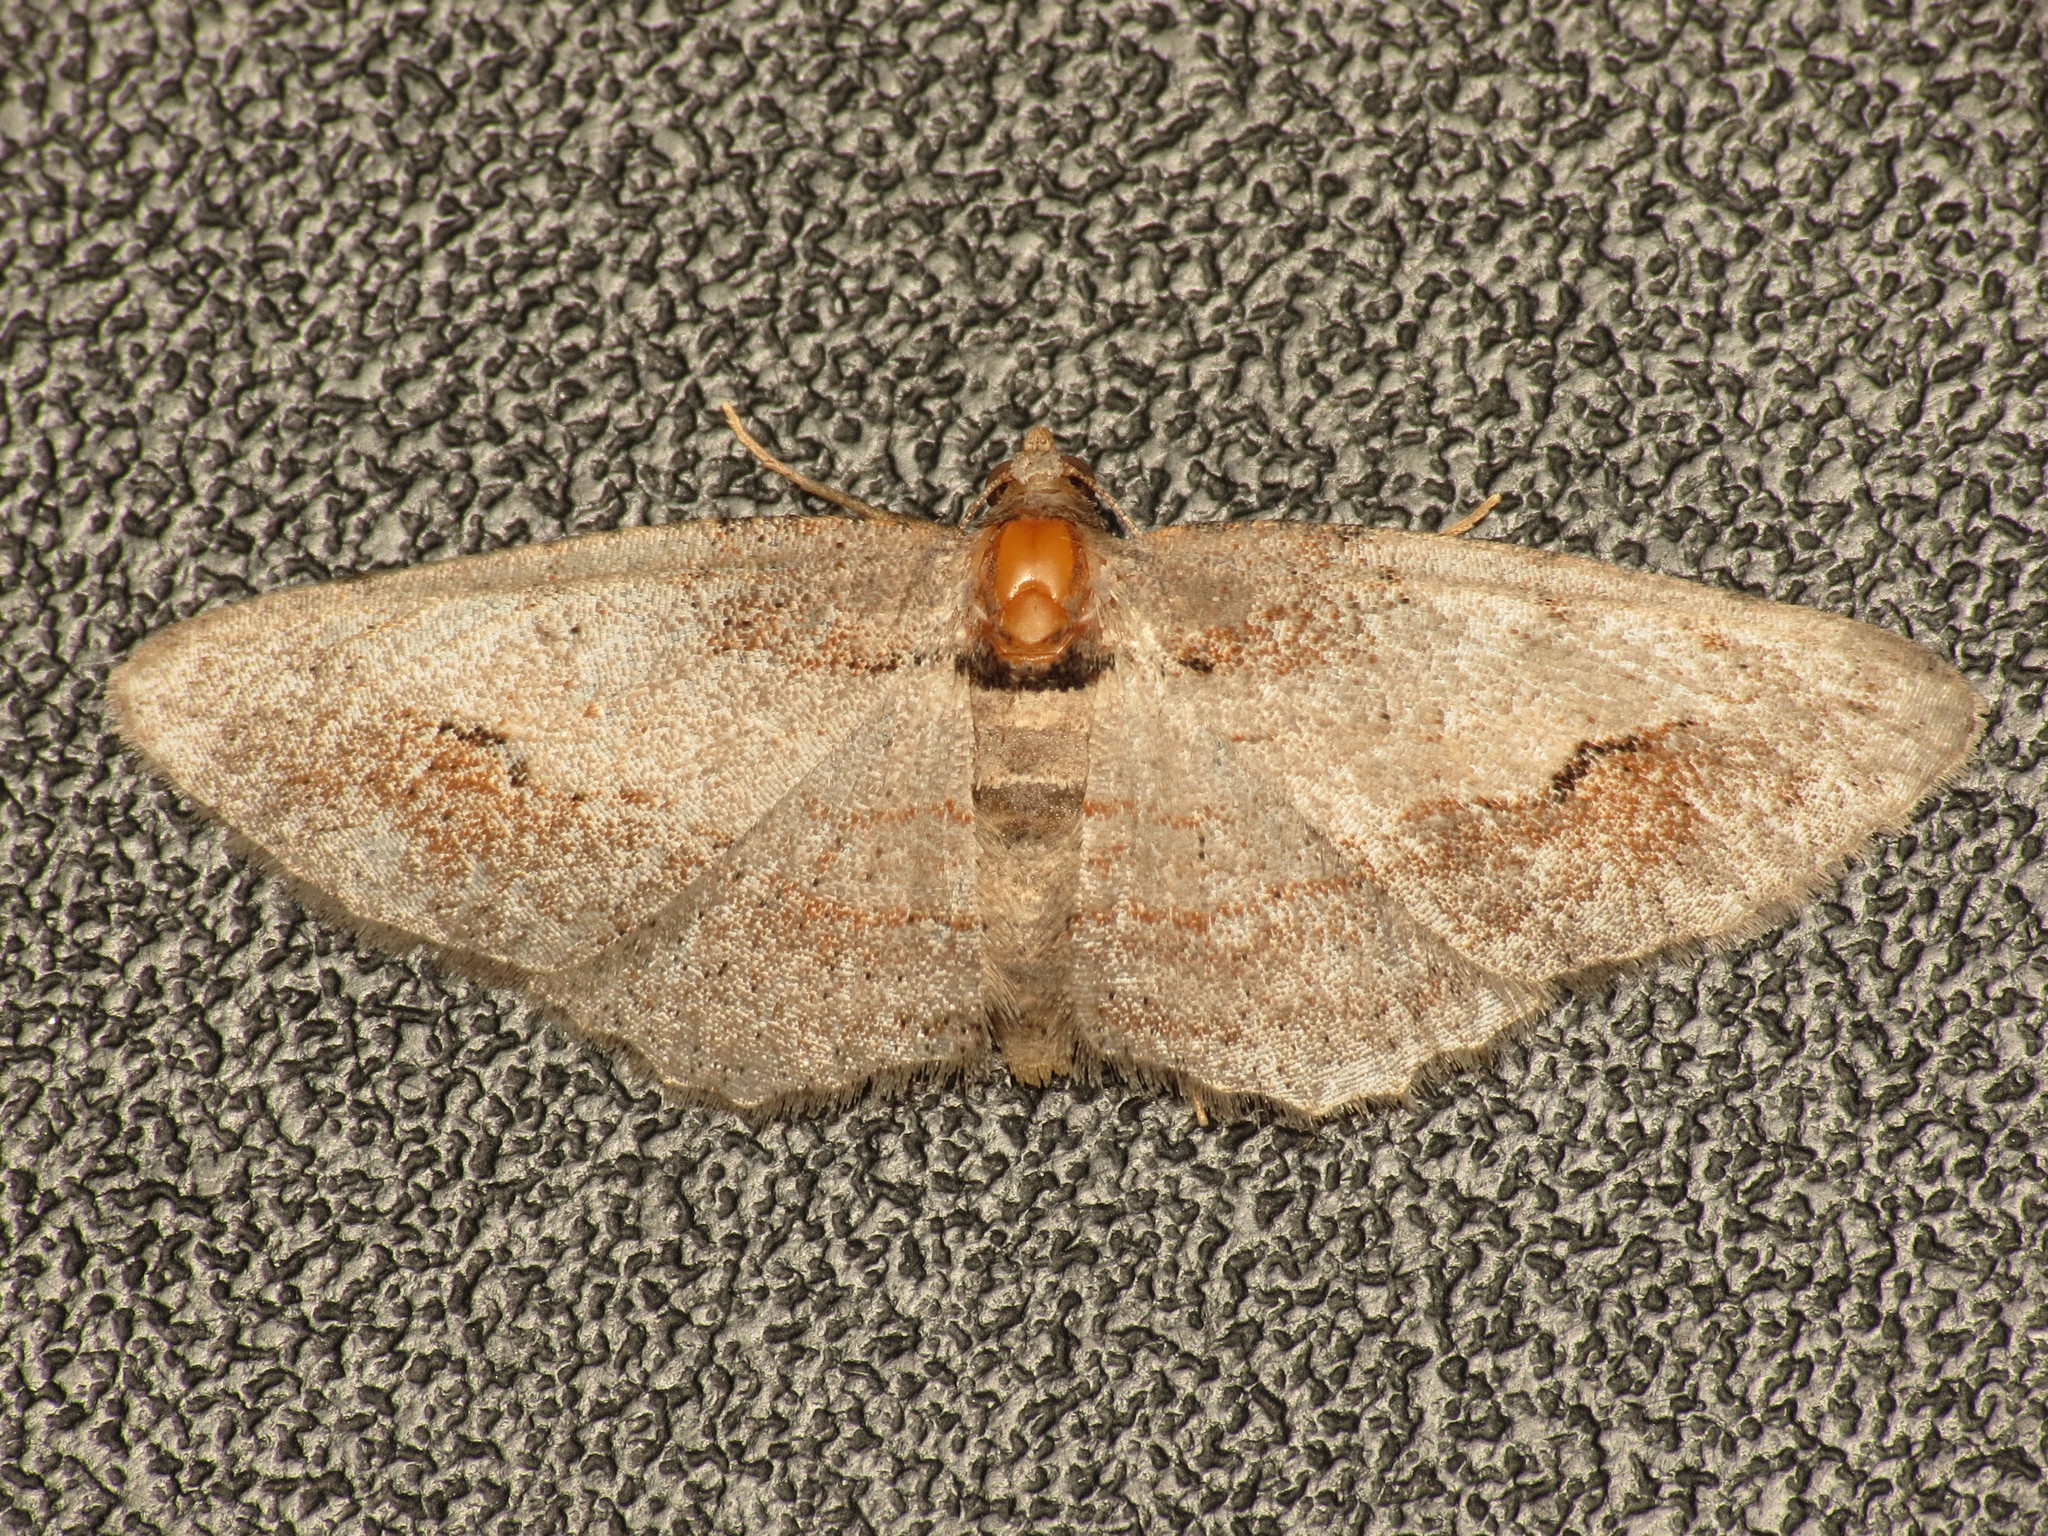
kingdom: Animalia
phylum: Arthropoda
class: Insecta
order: Lepidoptera
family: Geometridae
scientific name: Geometridae
